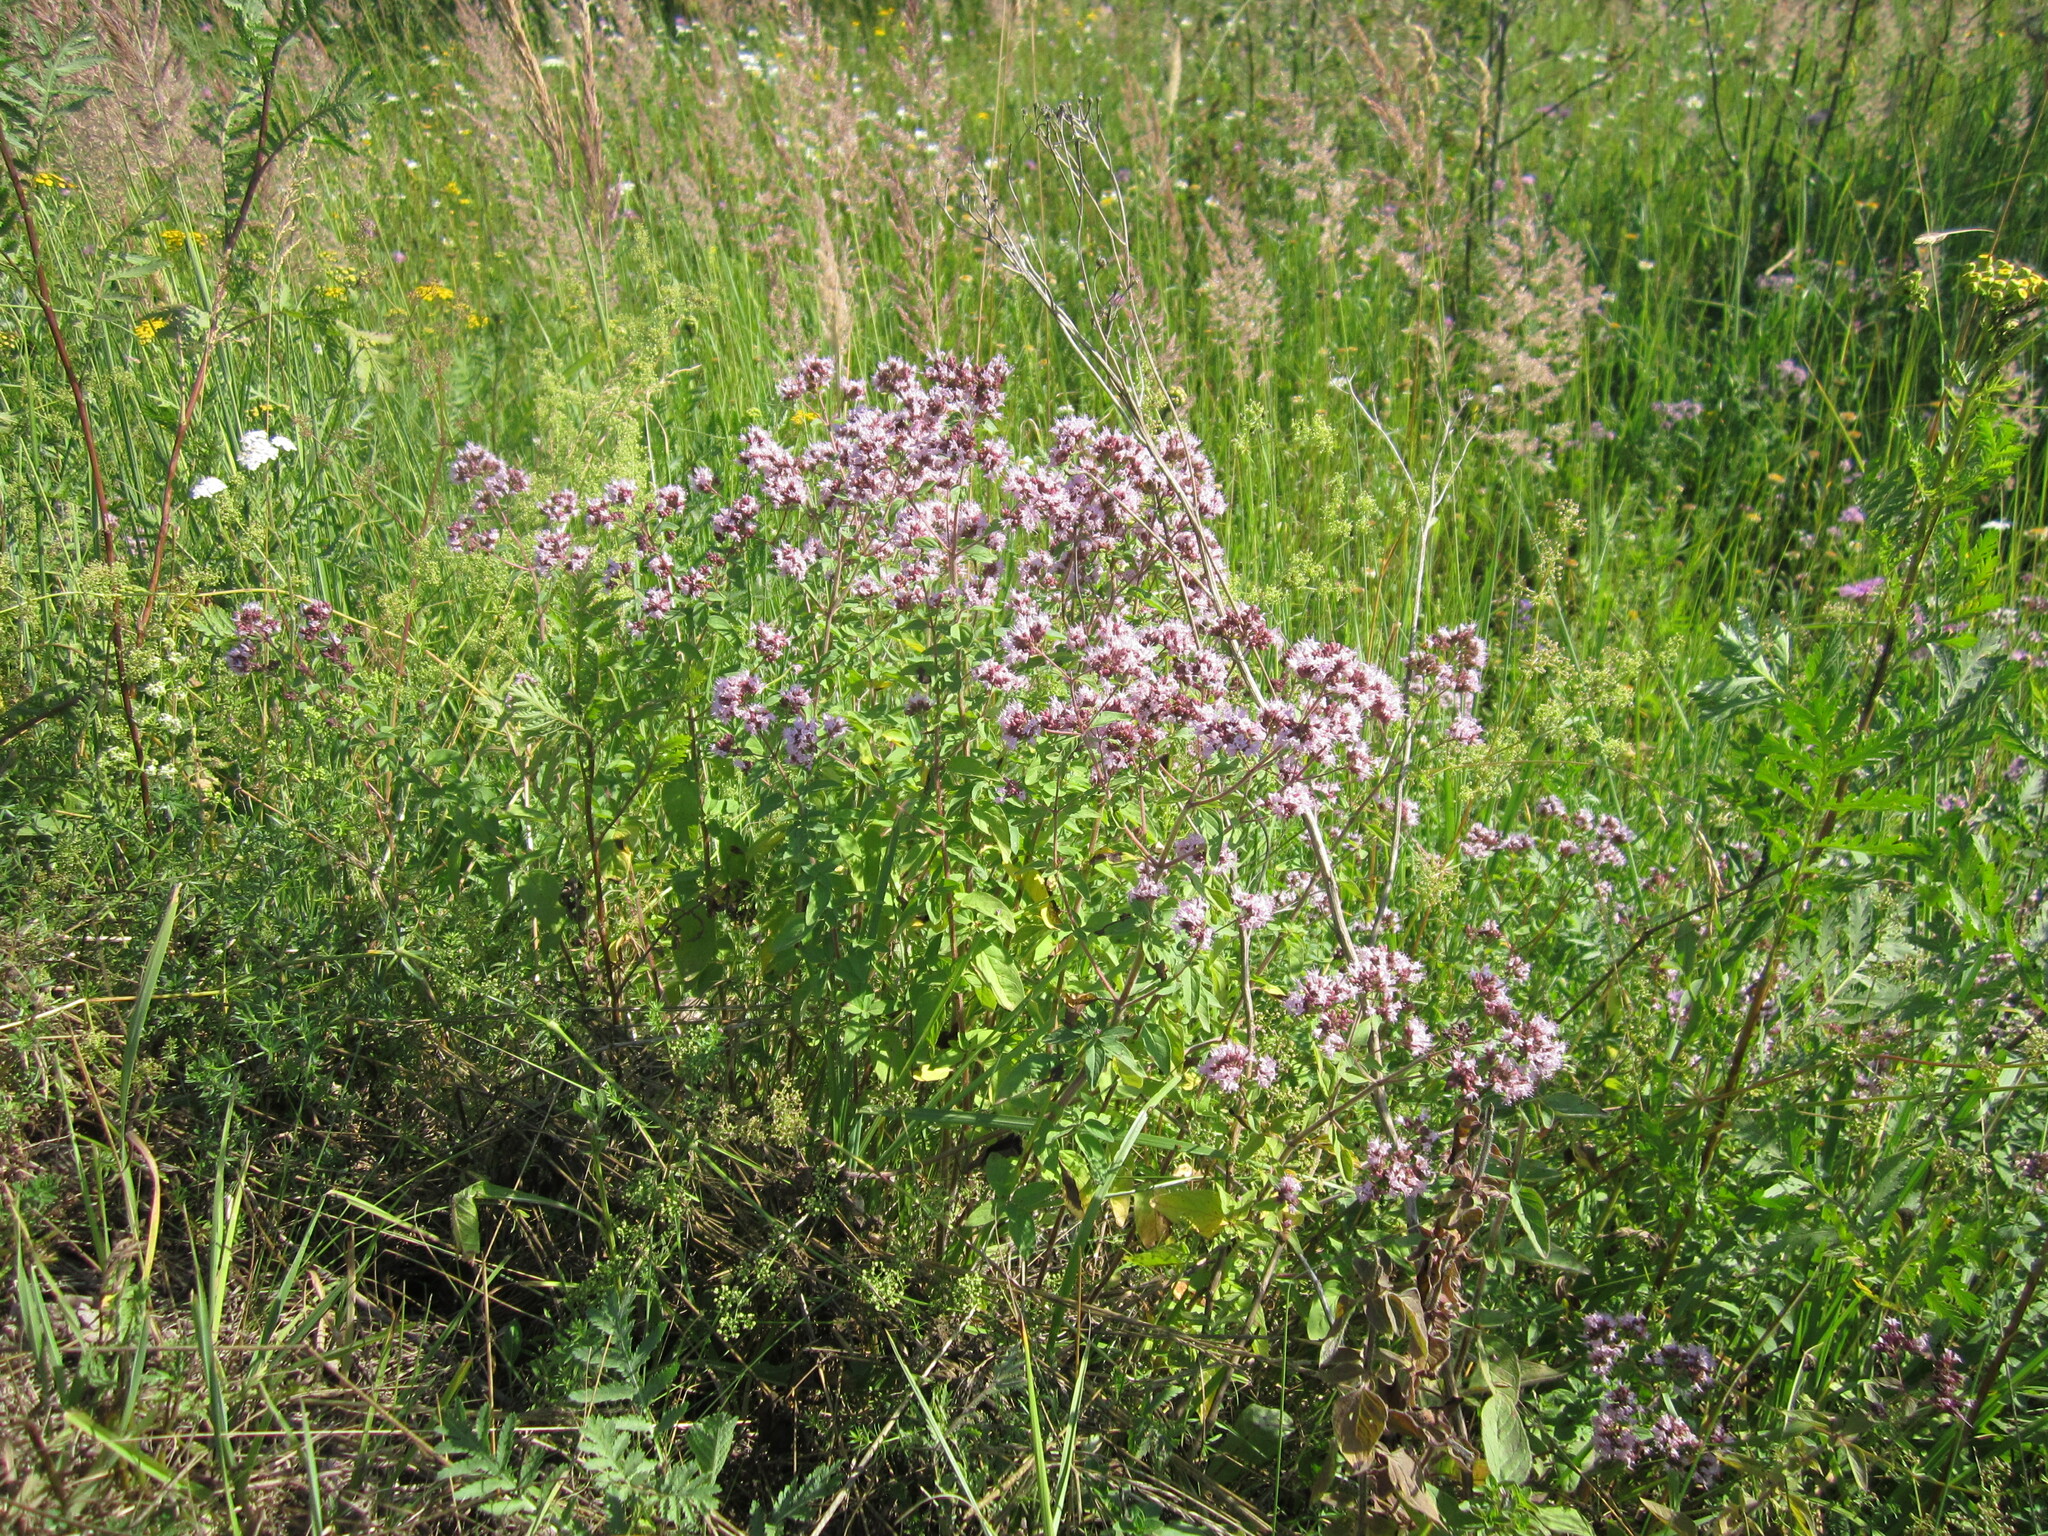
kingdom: Plantae
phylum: Tracheophyta
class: Magnoliopsida
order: Lamiales
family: Lamiaceae
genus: Origanum
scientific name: Origanum vulgare
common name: Wild marjoram
